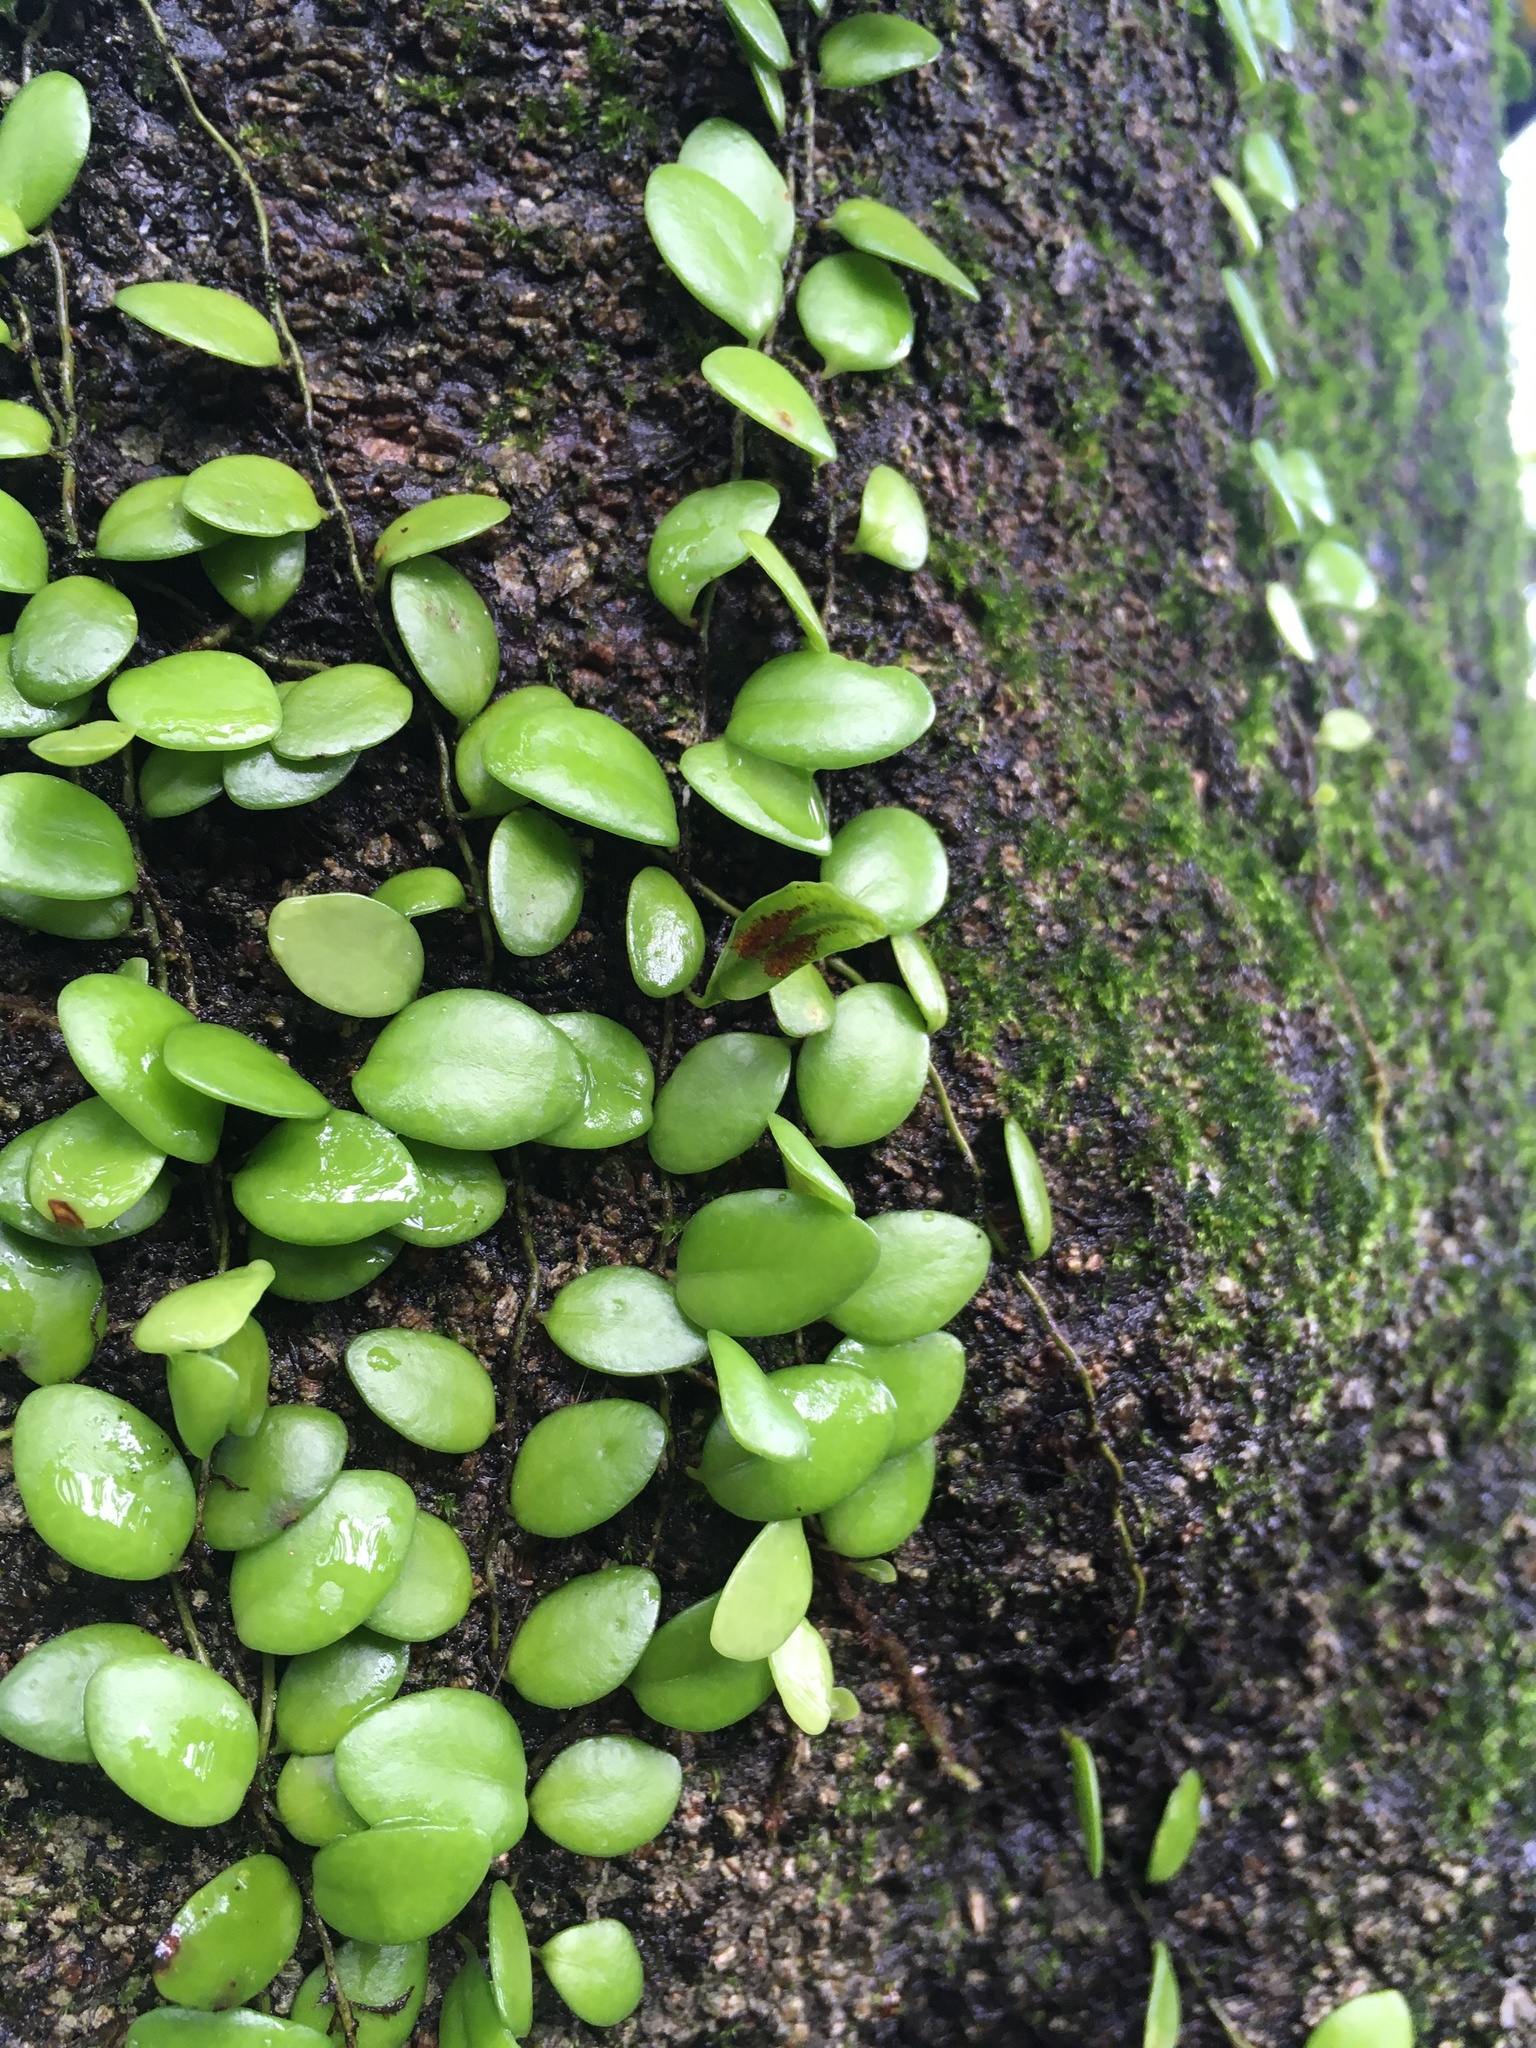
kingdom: Plantae
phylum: Tracheophyta
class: Polypodiopsida
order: Polypodiales
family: Polypodiaceae
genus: Lepisorus
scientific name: Lepisorus microphyllus
